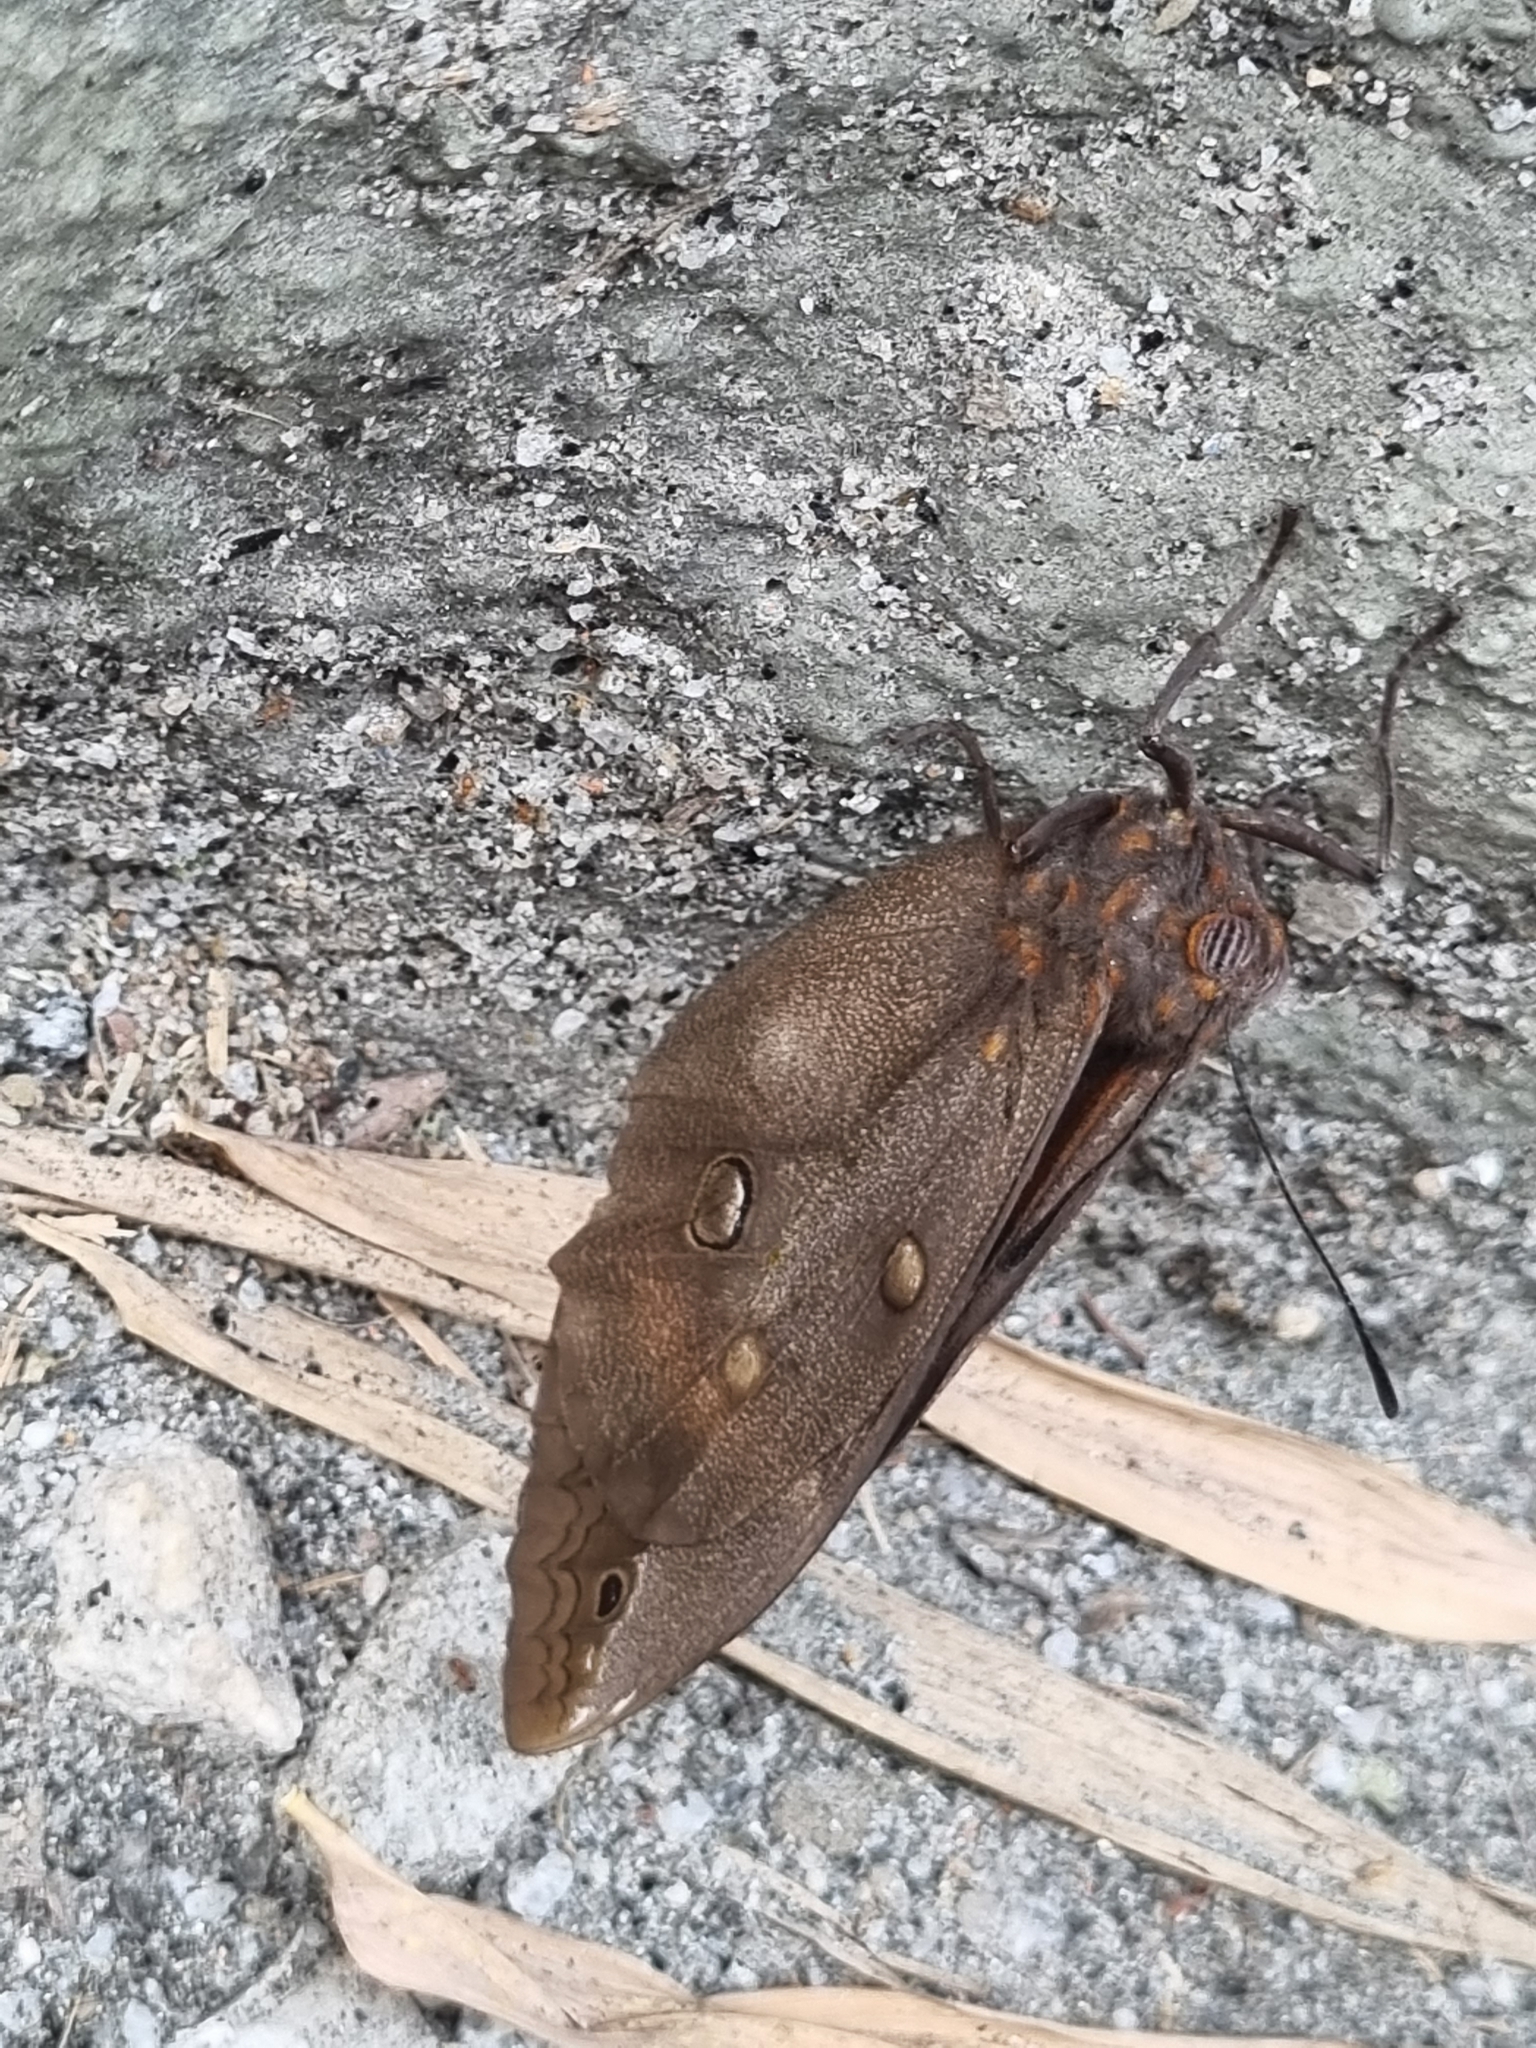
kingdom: Animalia
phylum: Arthropoda
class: Insecta
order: Lepidoptera
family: Nymphalidae
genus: Brassolis
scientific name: Brassolis sophorae
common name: Coconut caterpillar
